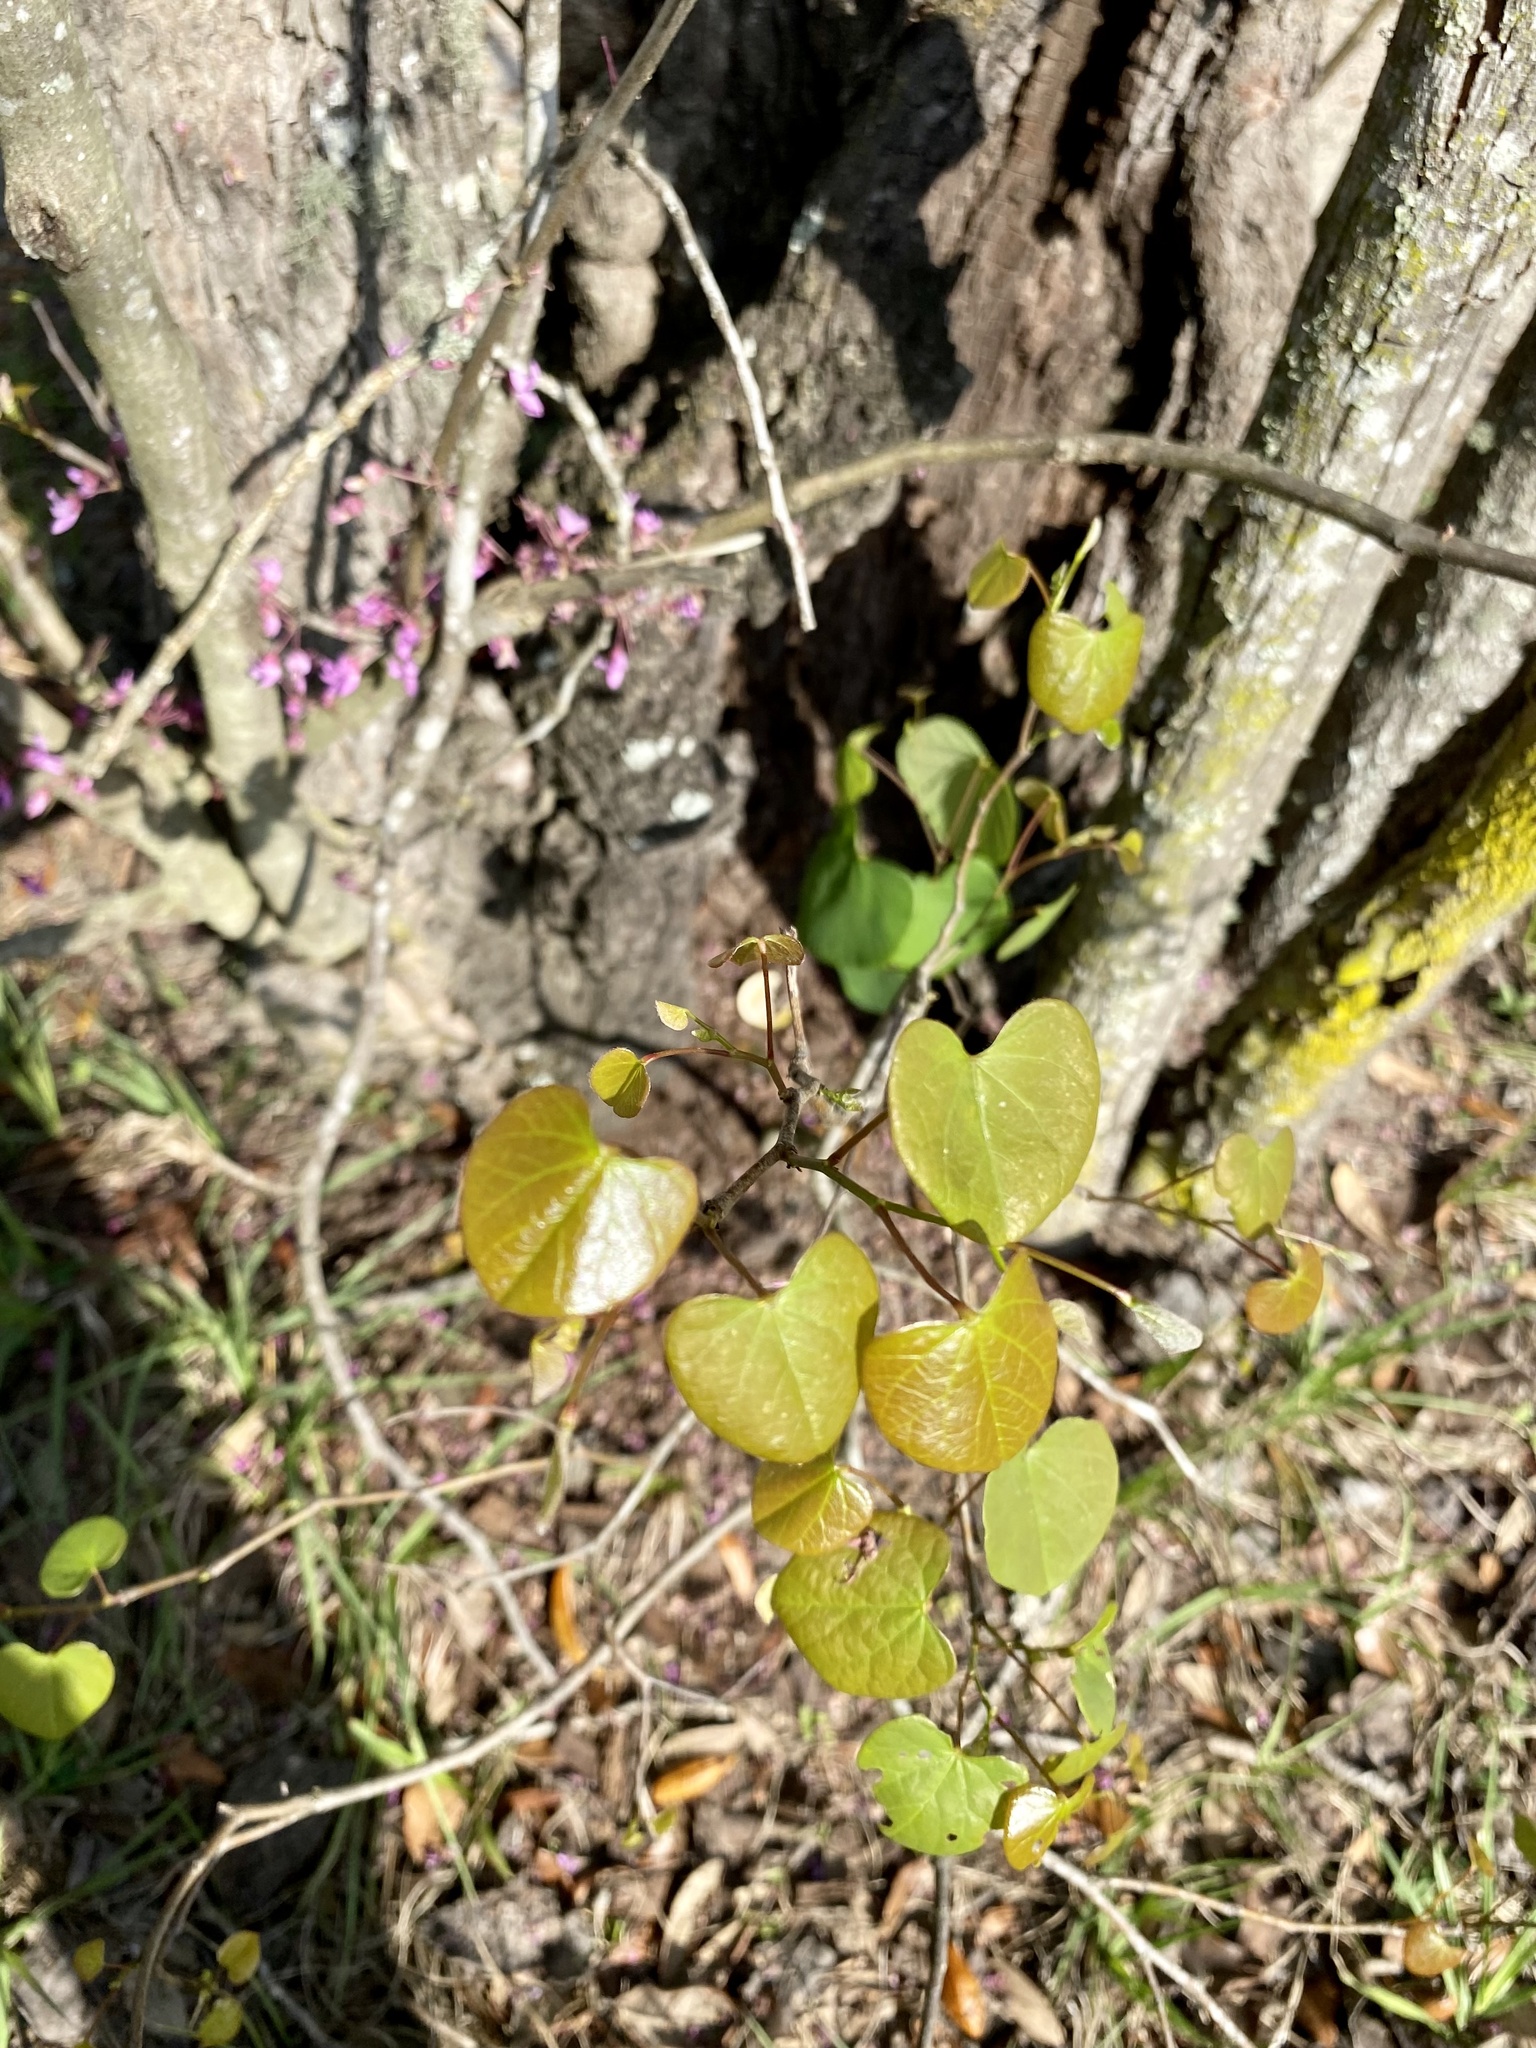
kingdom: Plantae
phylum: Tracheophyta
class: Magnoliopsida
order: Fabales
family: Fabaceae
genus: Cercis
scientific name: Cercis canadensis
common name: Eastern redbud
